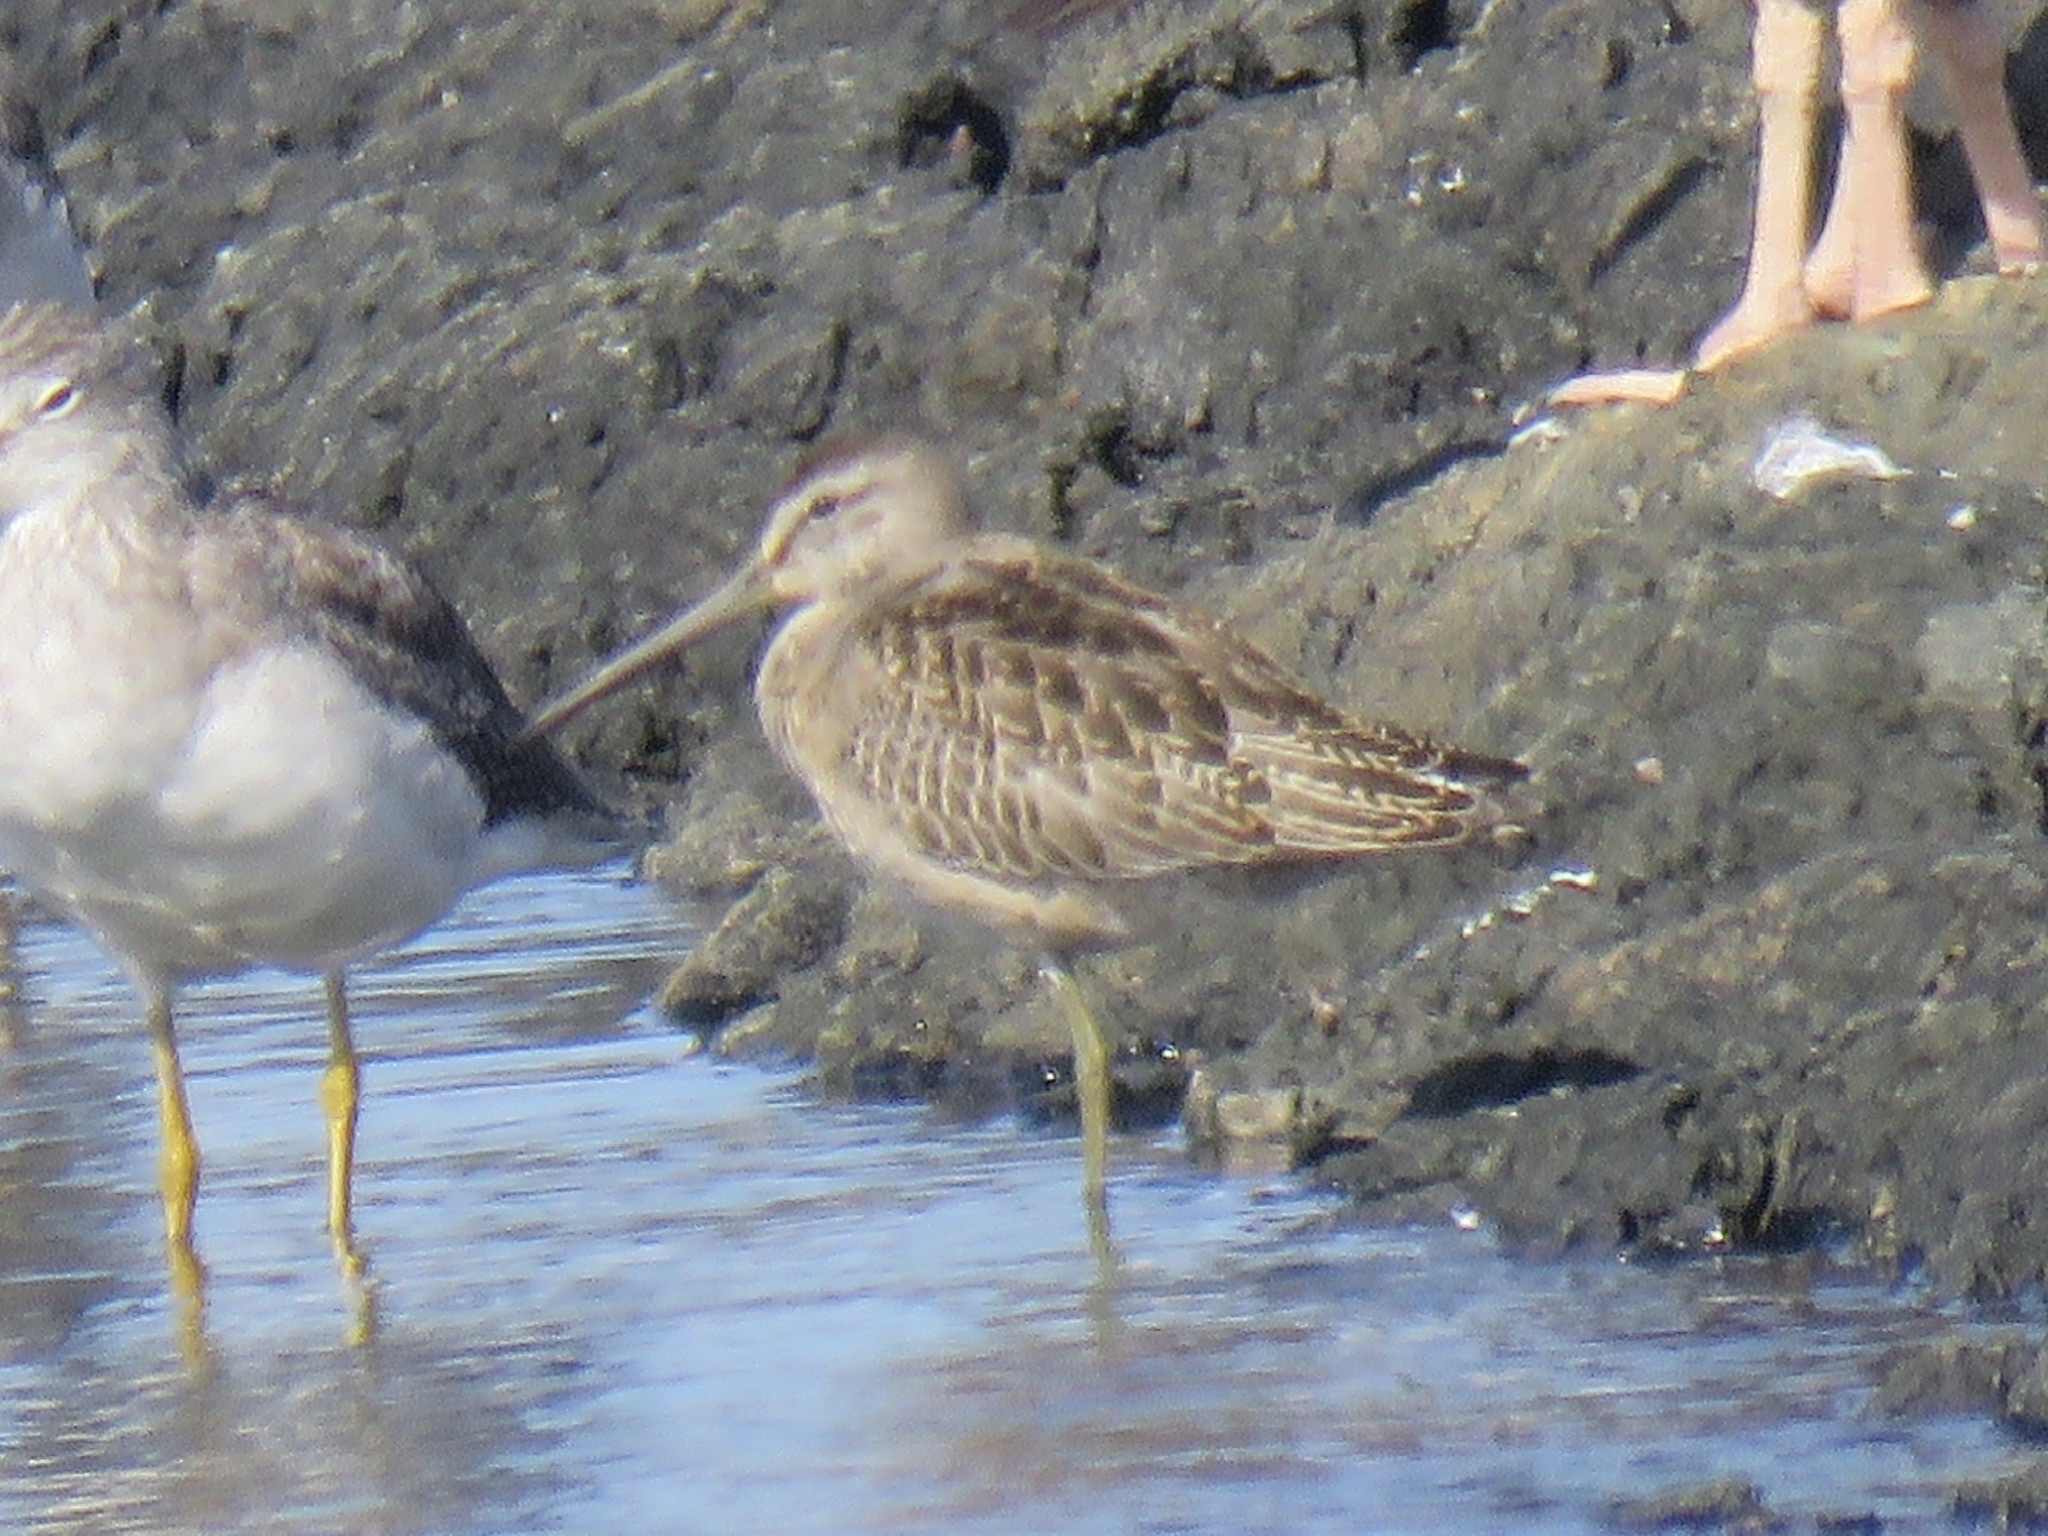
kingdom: Animalia
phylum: Chordata
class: Aves
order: Charadriiformes
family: Scolopacidae
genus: Limnodromus
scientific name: Limnodromus griseus
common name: Short-billed dowitcher
